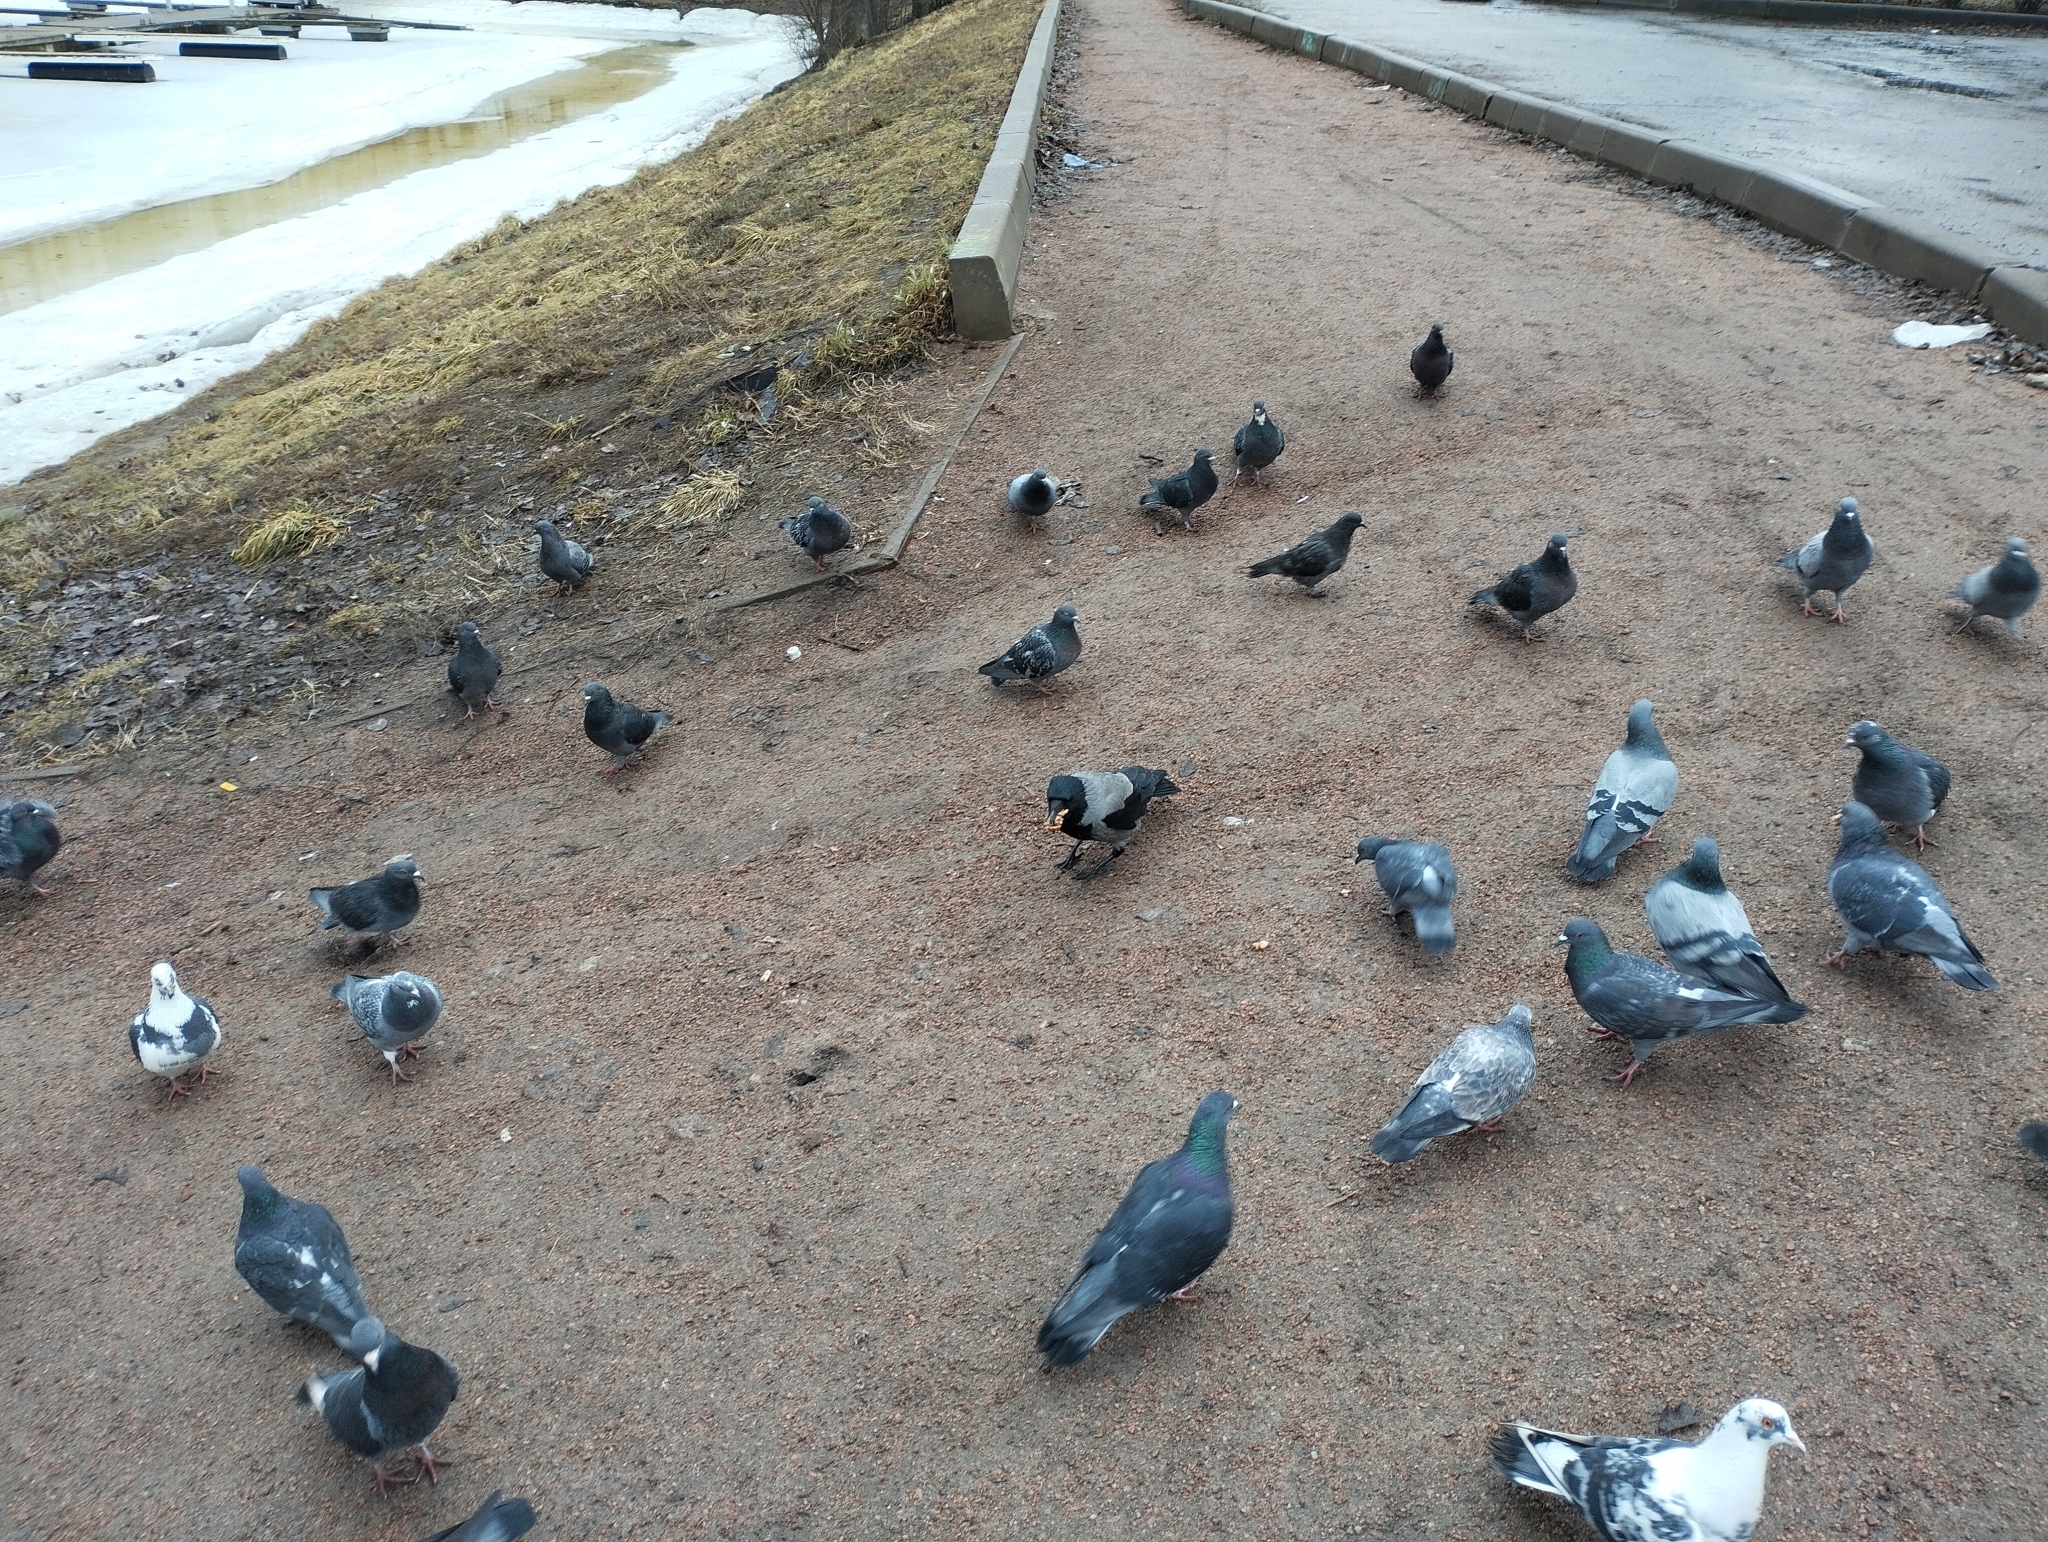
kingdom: Animalia
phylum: Chordata
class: Aves
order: Columbiformes
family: Columbidae
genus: Columba
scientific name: Columba livia
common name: Rock pigeon
